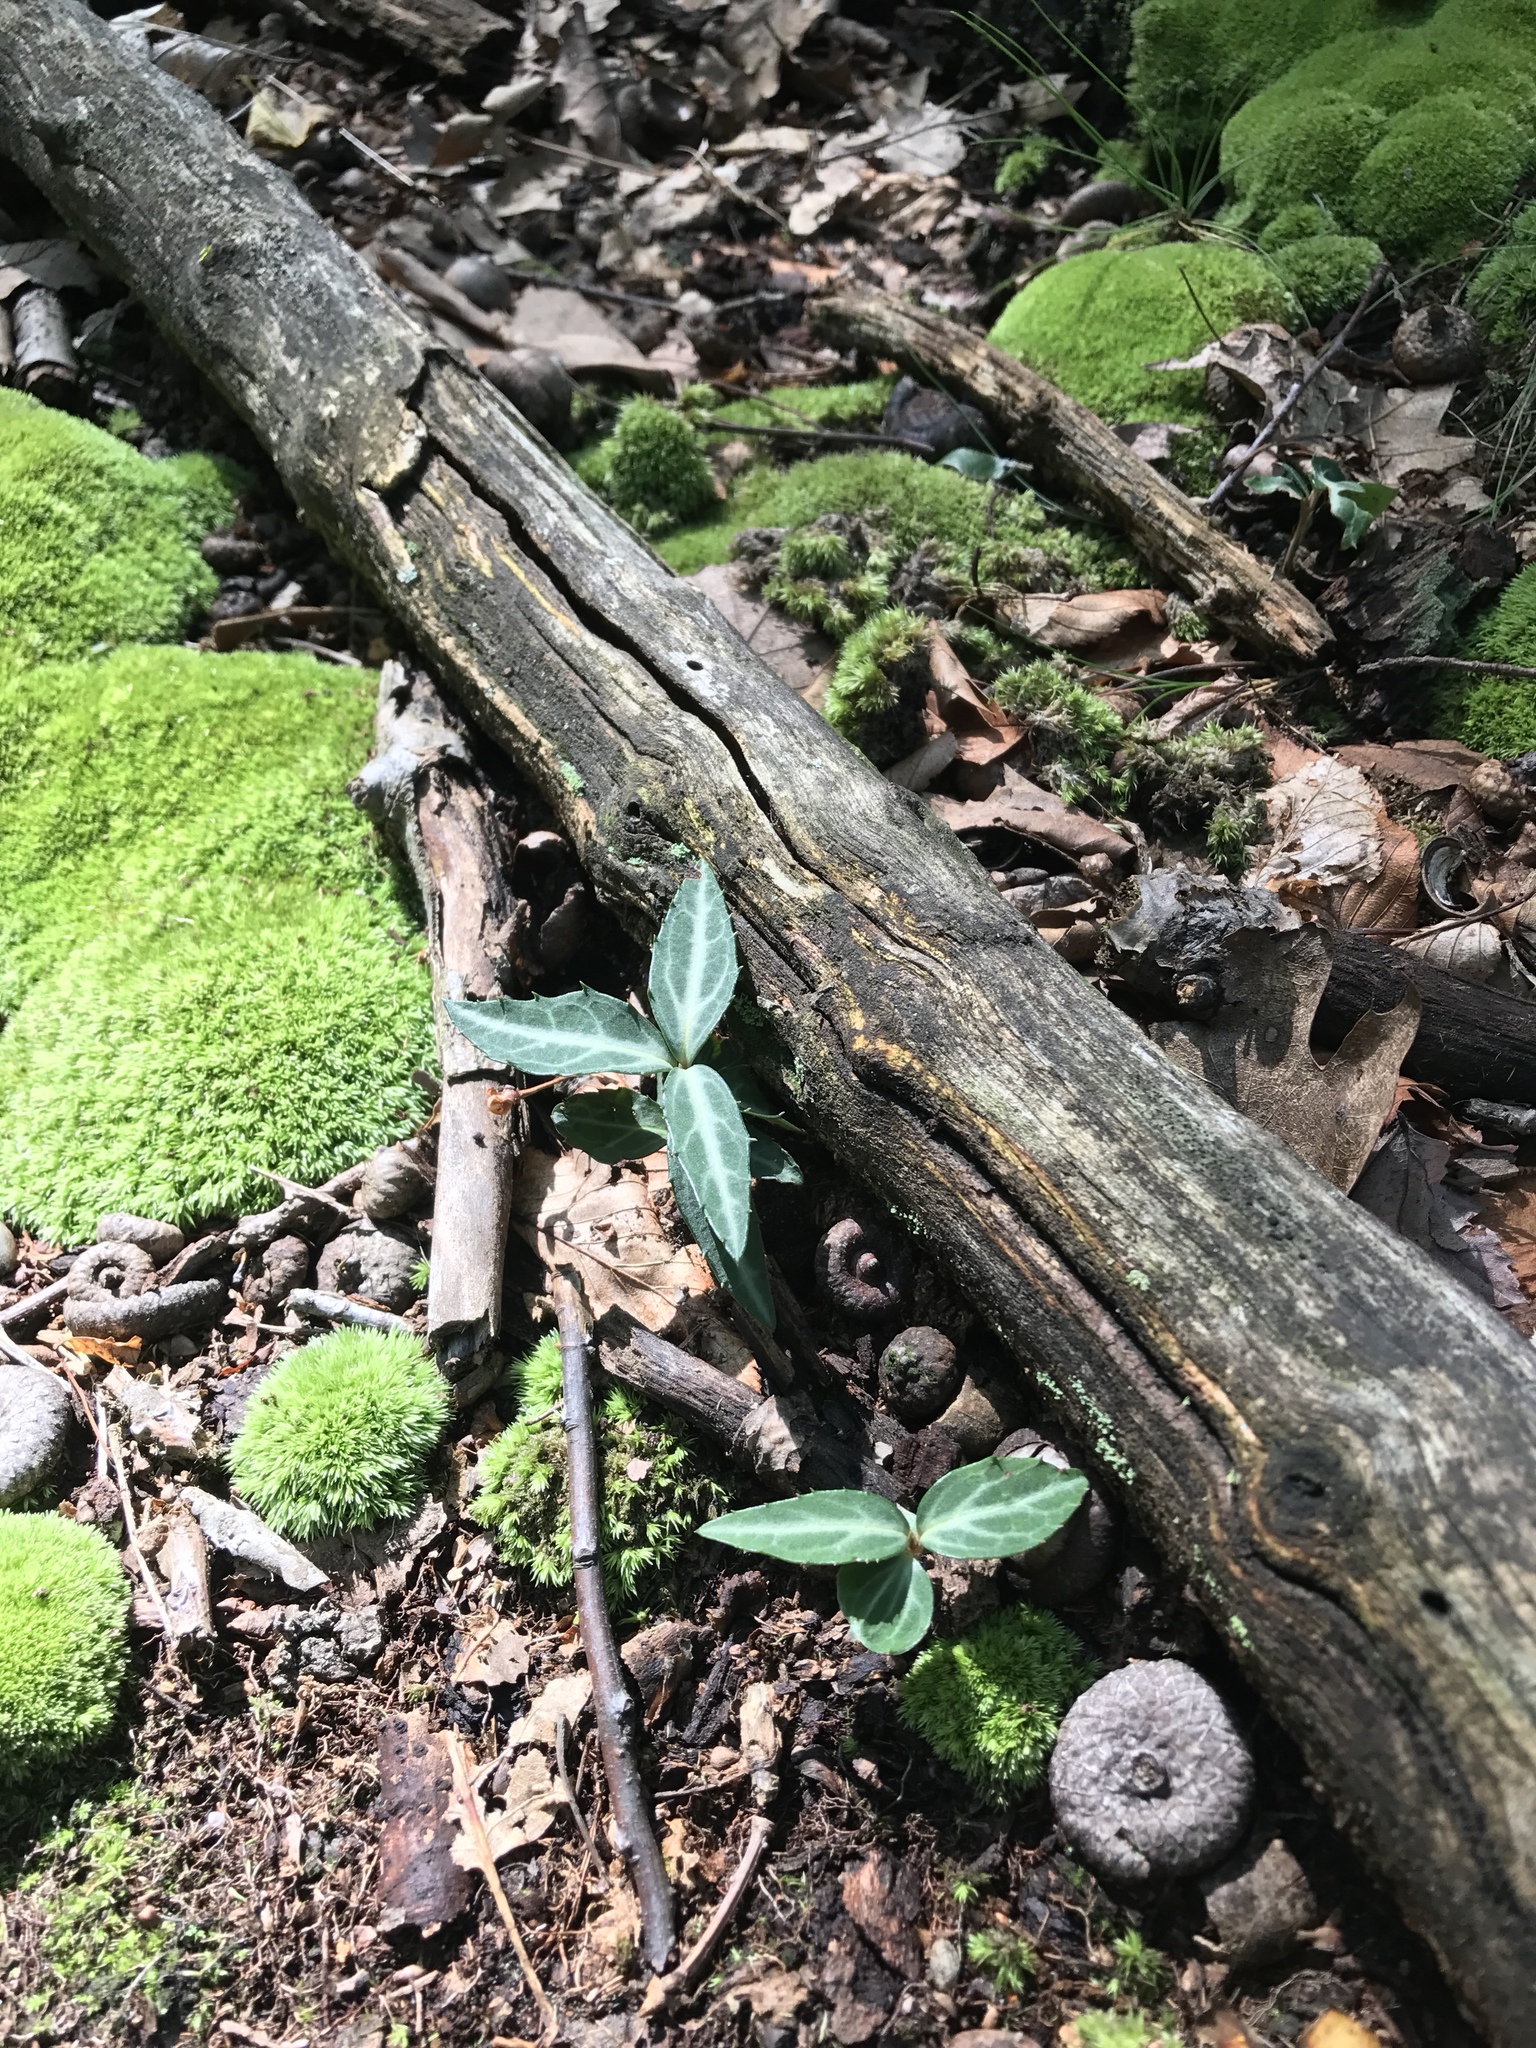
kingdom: Plantae
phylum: Tracheophyta
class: Magnoliopsida
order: Ericales
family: Ericaceae
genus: Chimaphila
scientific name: Chimaphila maculata
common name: Spotted pipsissewa
